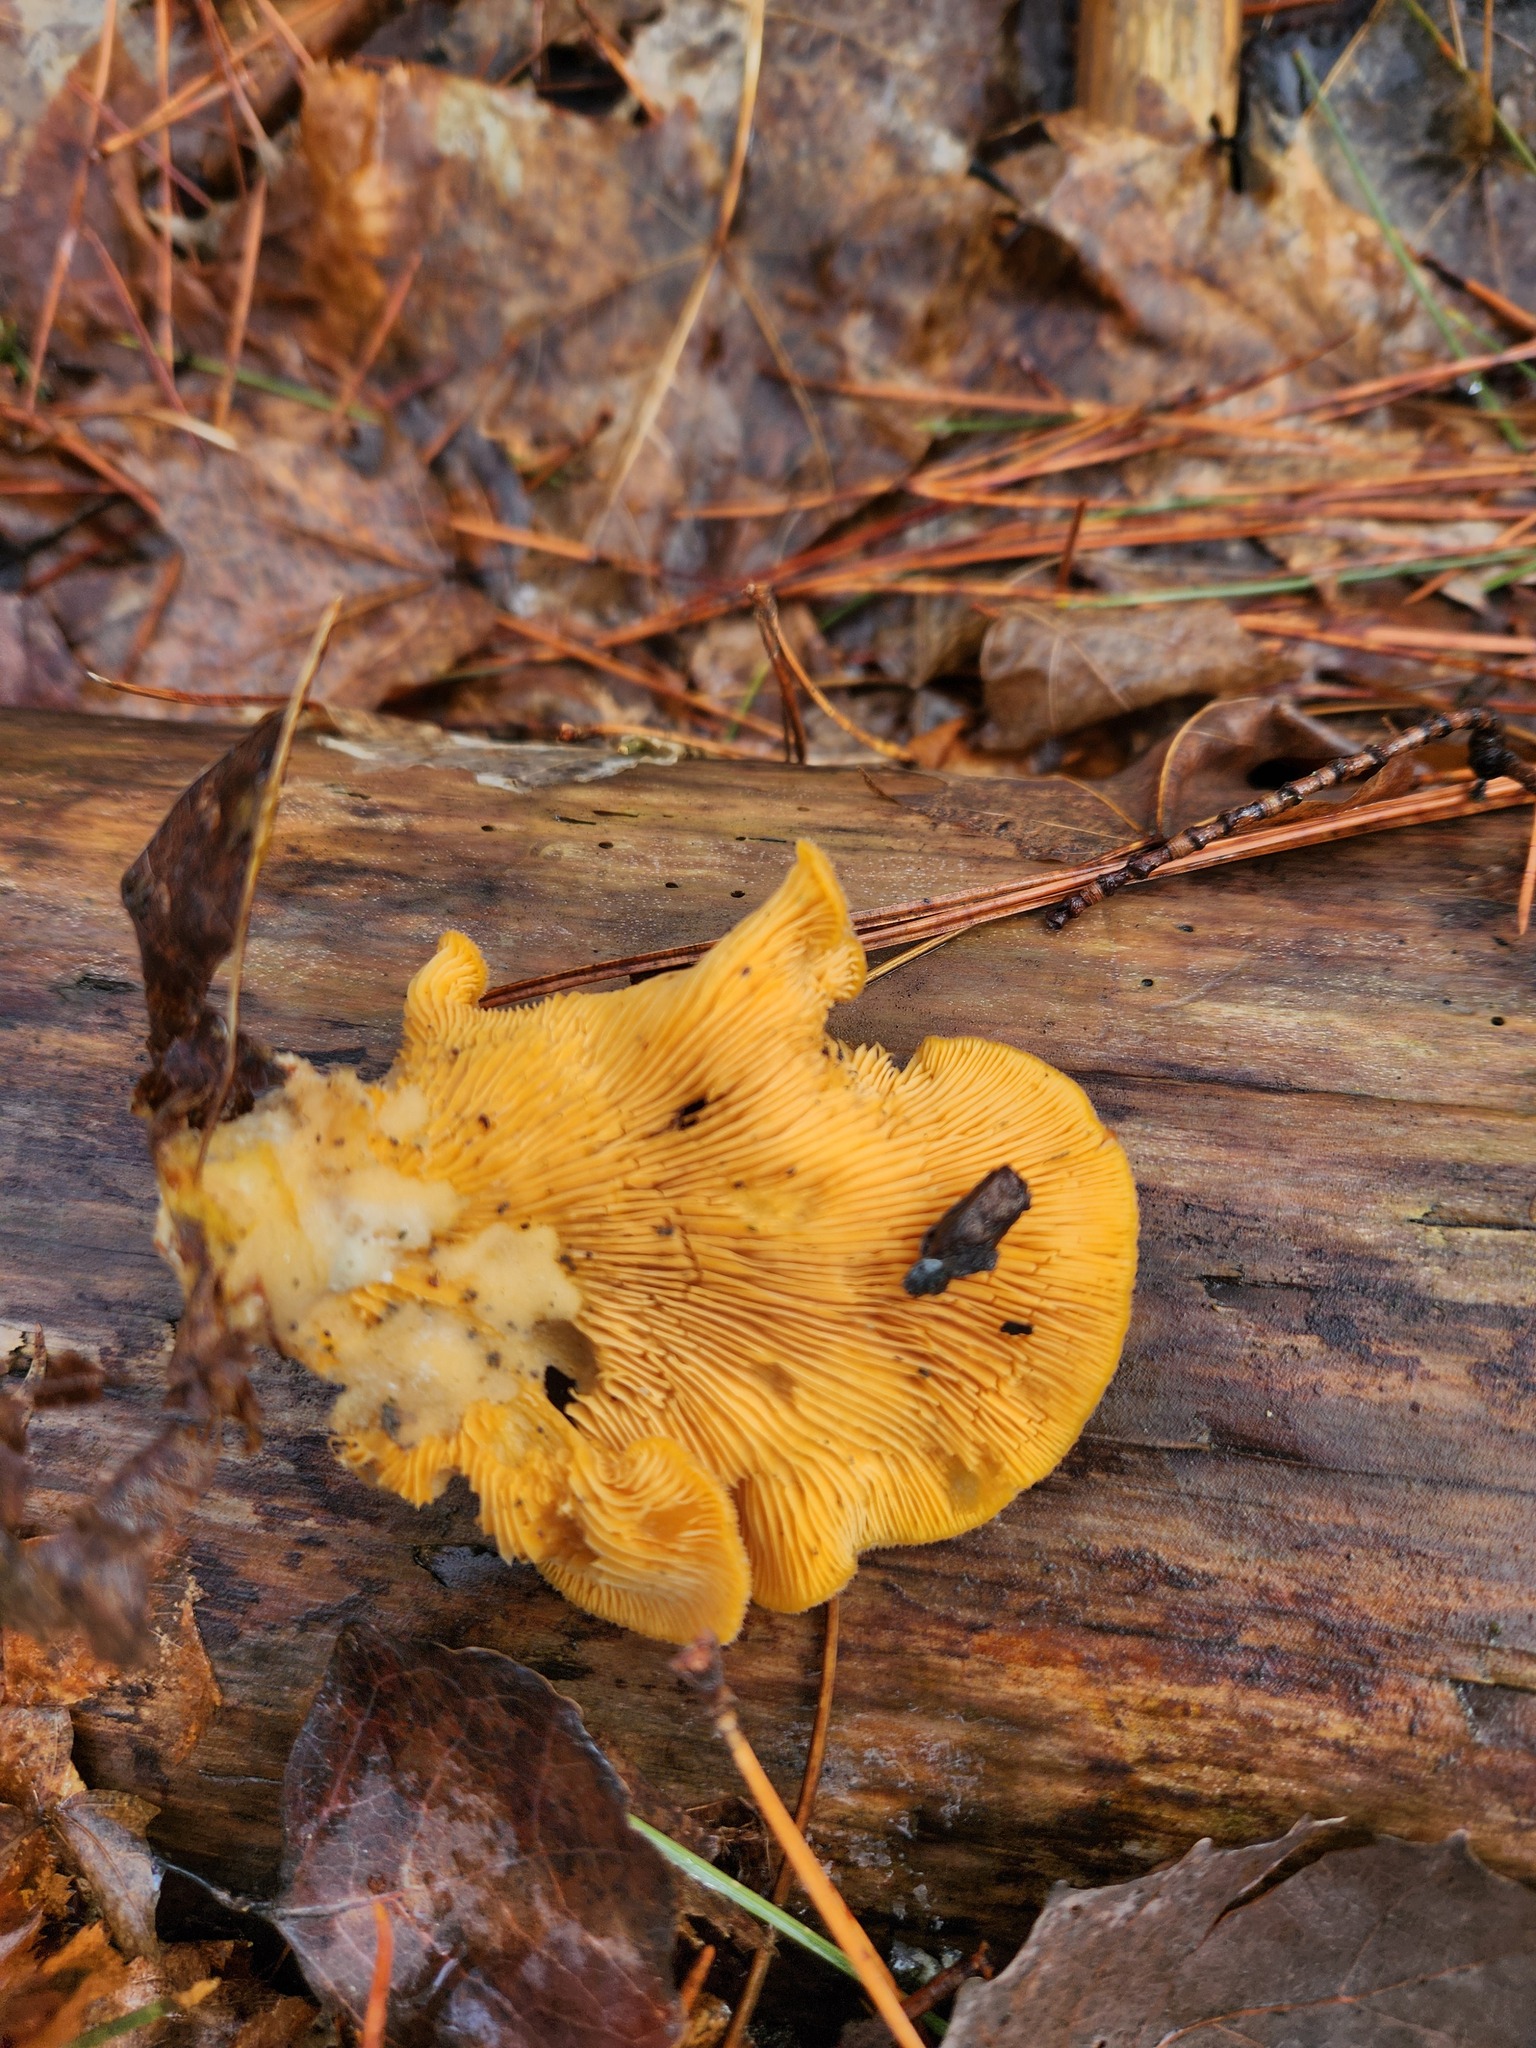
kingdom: Fungi
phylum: Basidiomycota
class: Agaricomycetes
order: Agaricales
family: Phyllotopsidaceae
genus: Phyllotopsis
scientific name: Phyllotopsis nidulans
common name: Orange mock oyster
